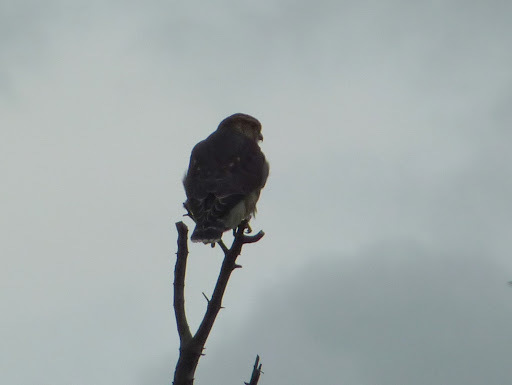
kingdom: Animalia
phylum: Chordata
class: Aves
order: Falconiformes
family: Falconidae
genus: Falco
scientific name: Falco columbarius
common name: Merlin
